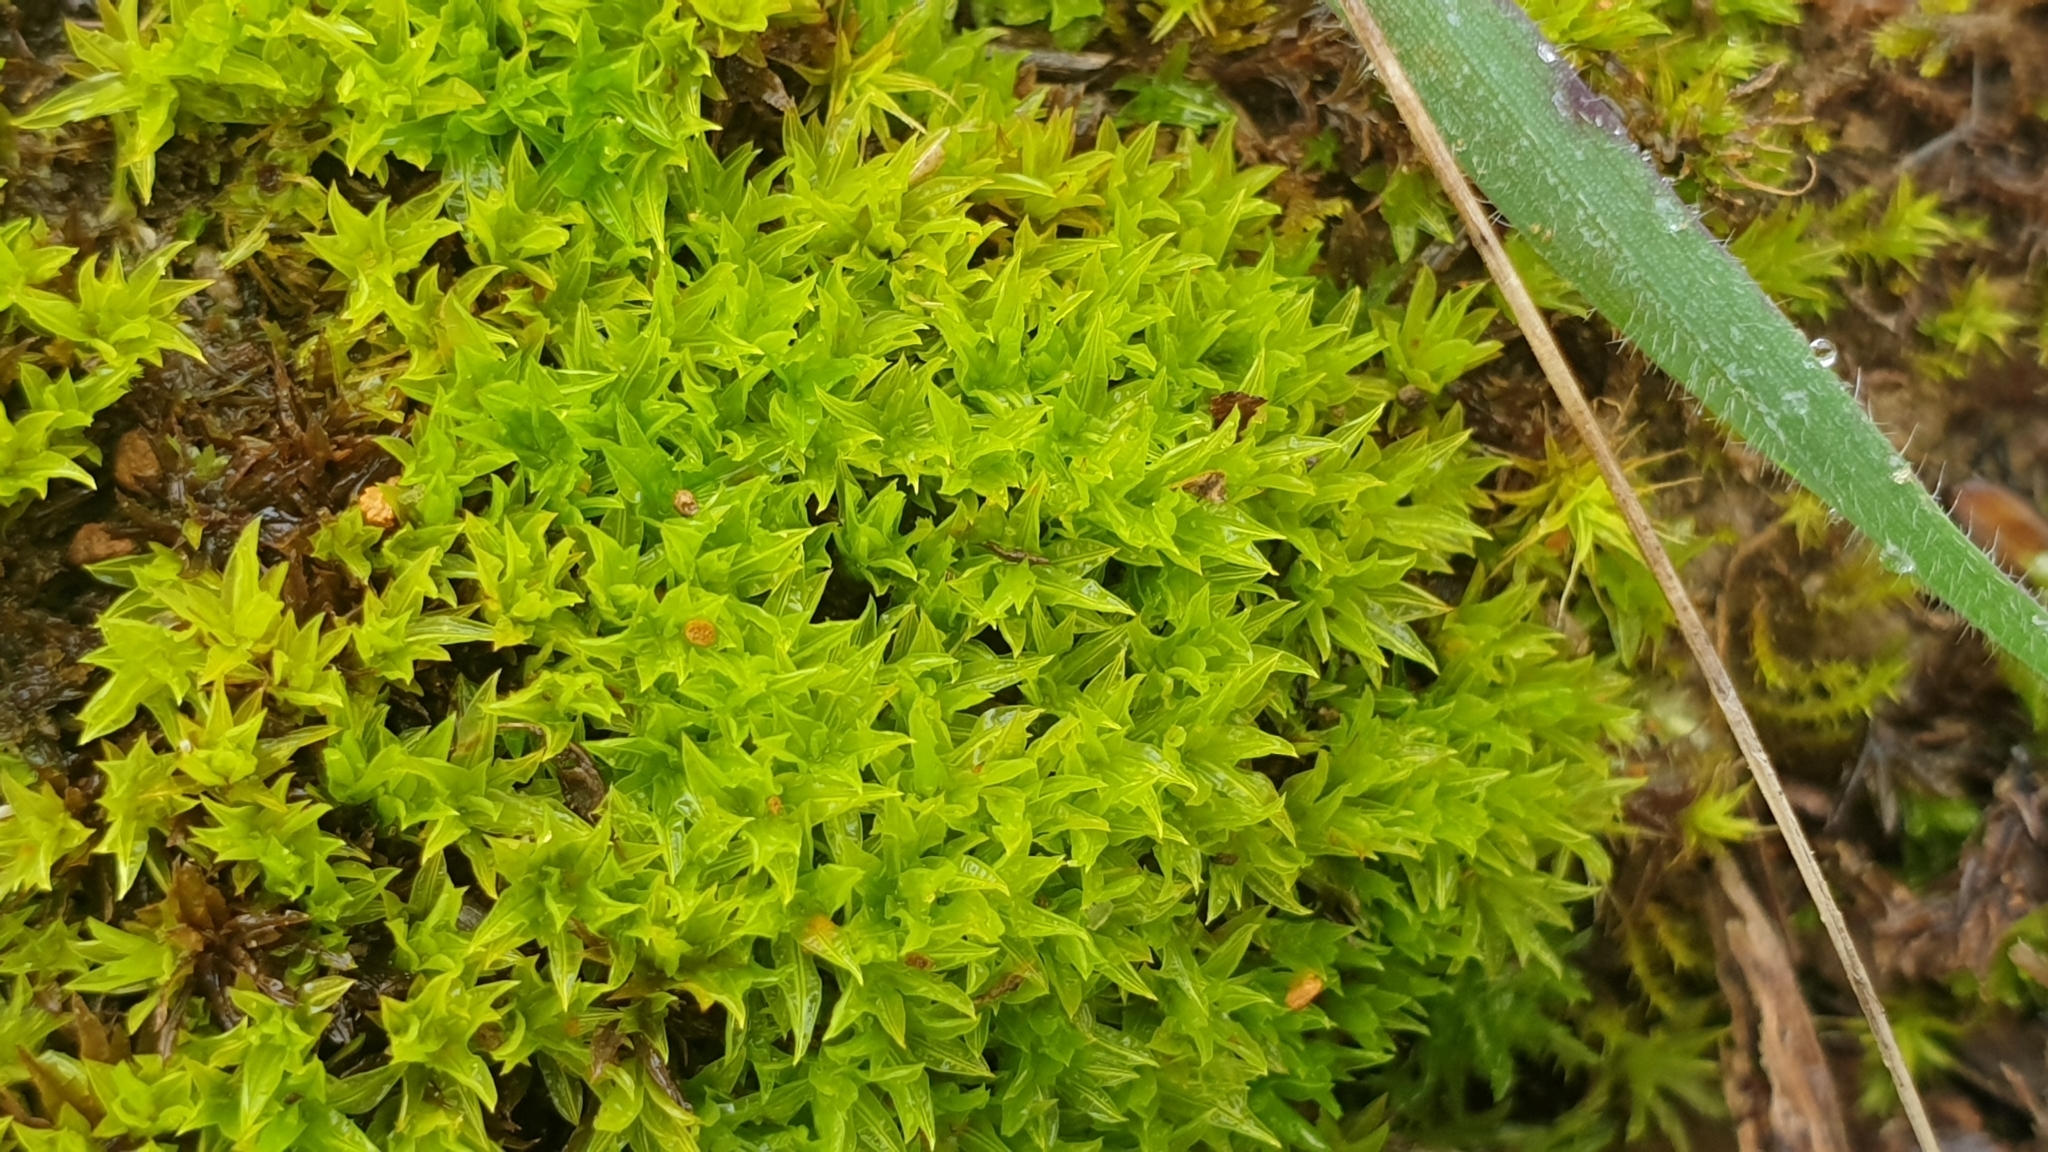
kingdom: Plantae
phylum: Bryophyta
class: Bryopsida
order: Pottiales
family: Pottiaceae
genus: Gertrudiella
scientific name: Gertrudiella torquata
